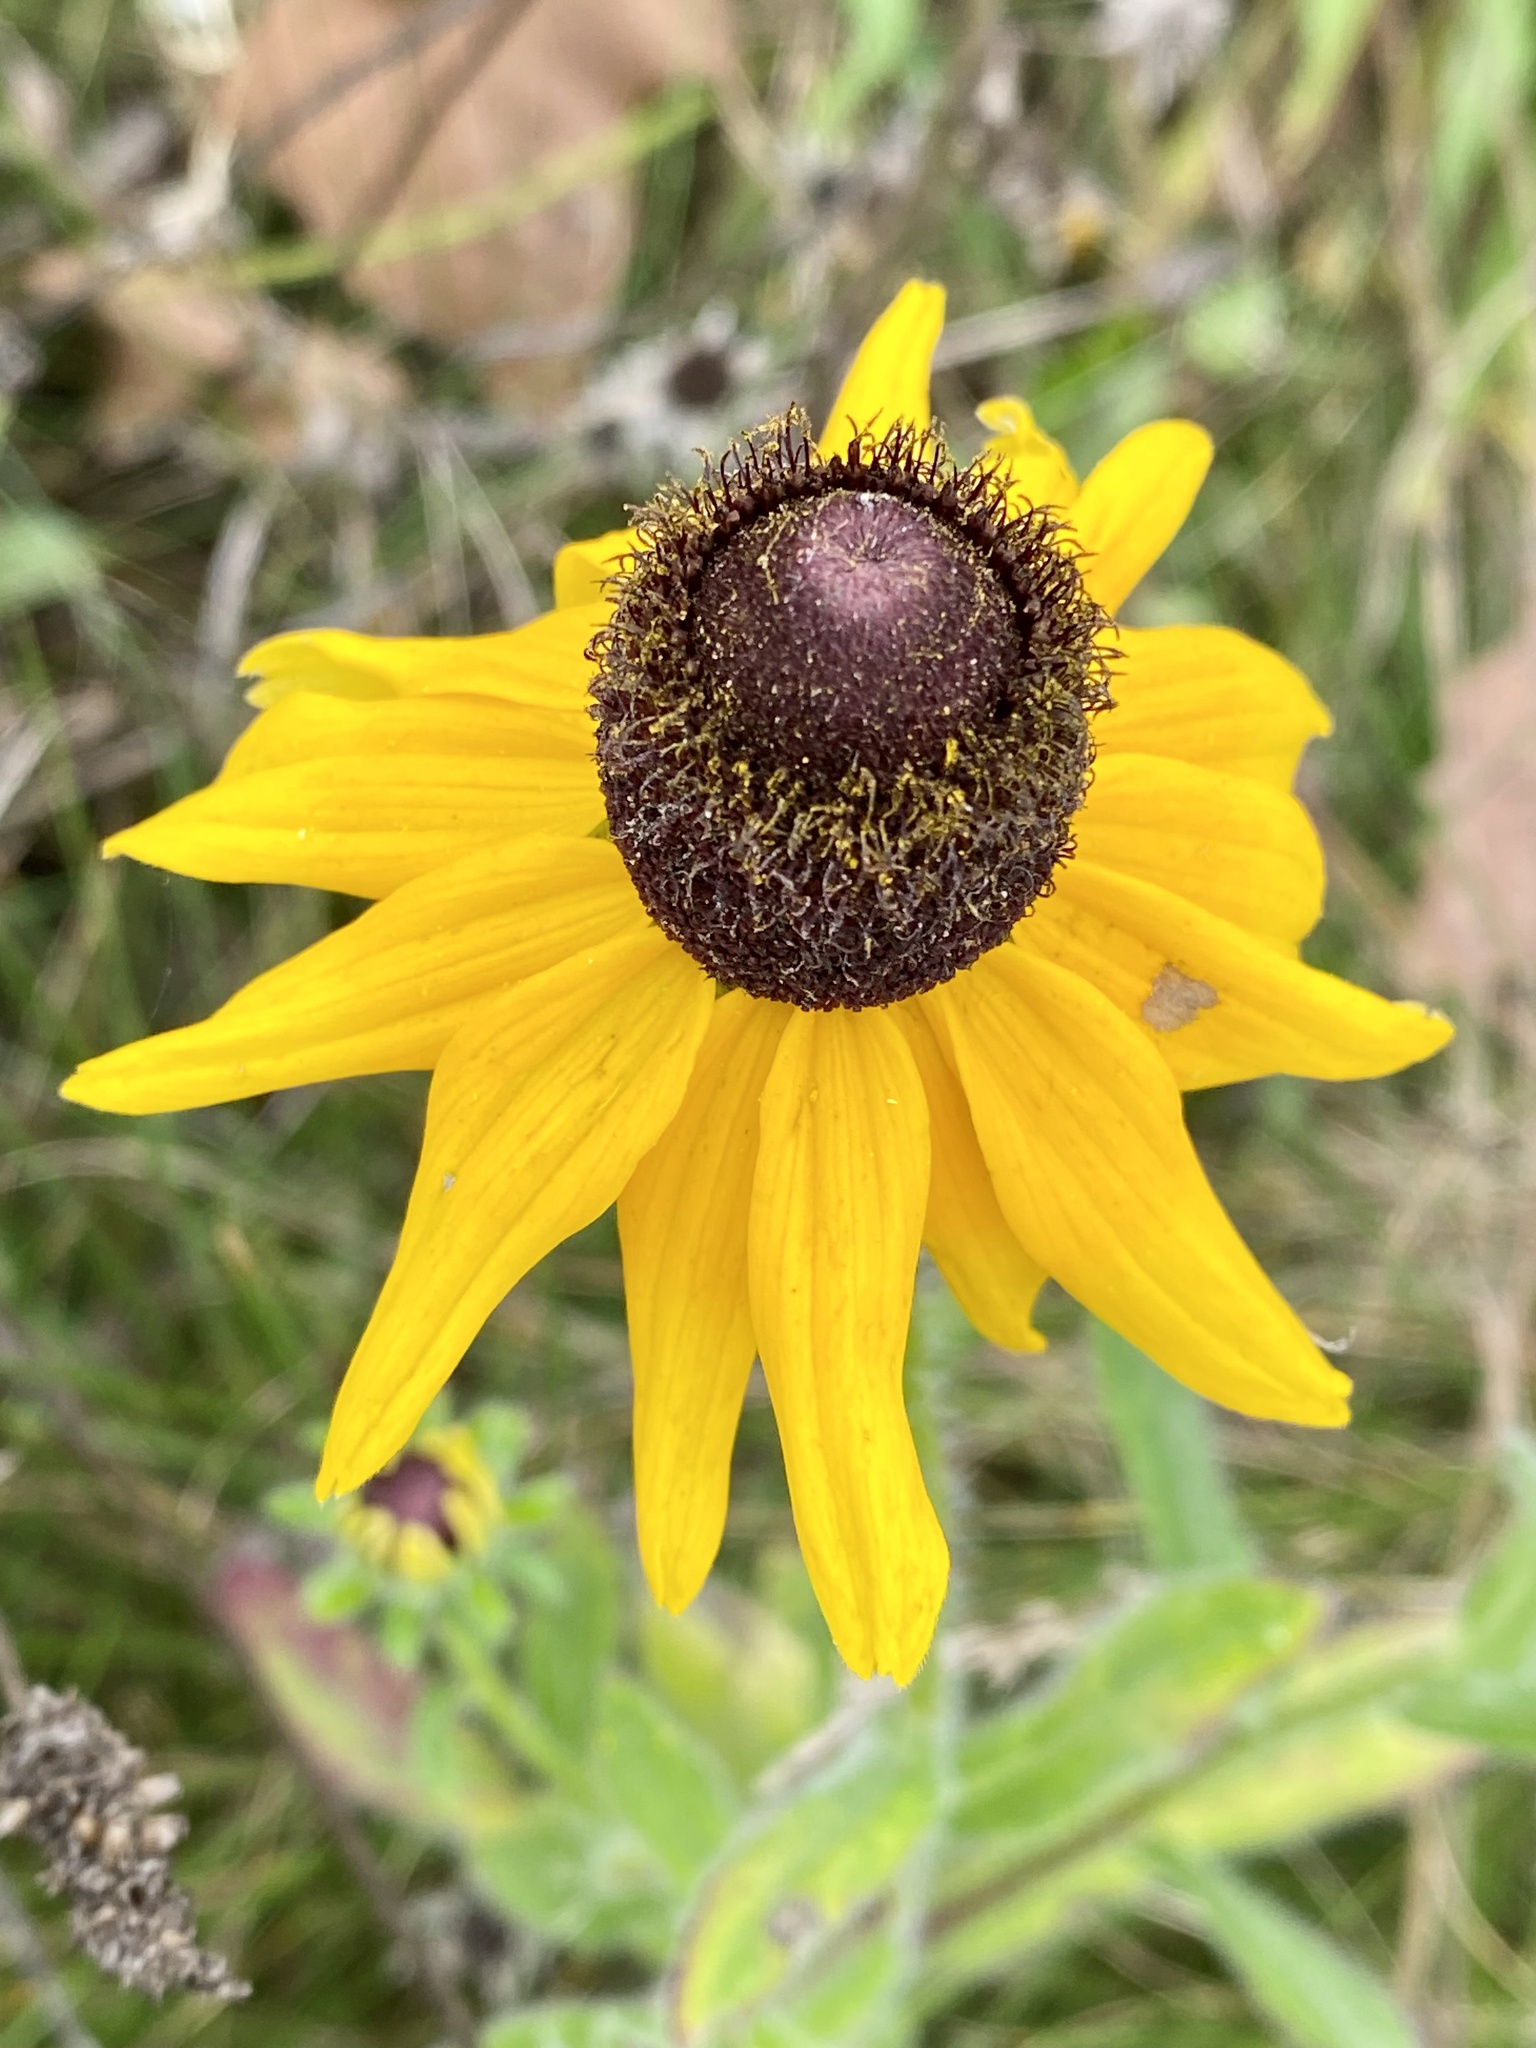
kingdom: Plantae
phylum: Tracheophyta
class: Magnoliopsida
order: Asterales
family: Asteraceae
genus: Rudbeckia
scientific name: Rudbeckia hirta
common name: Black-eyed-susan
